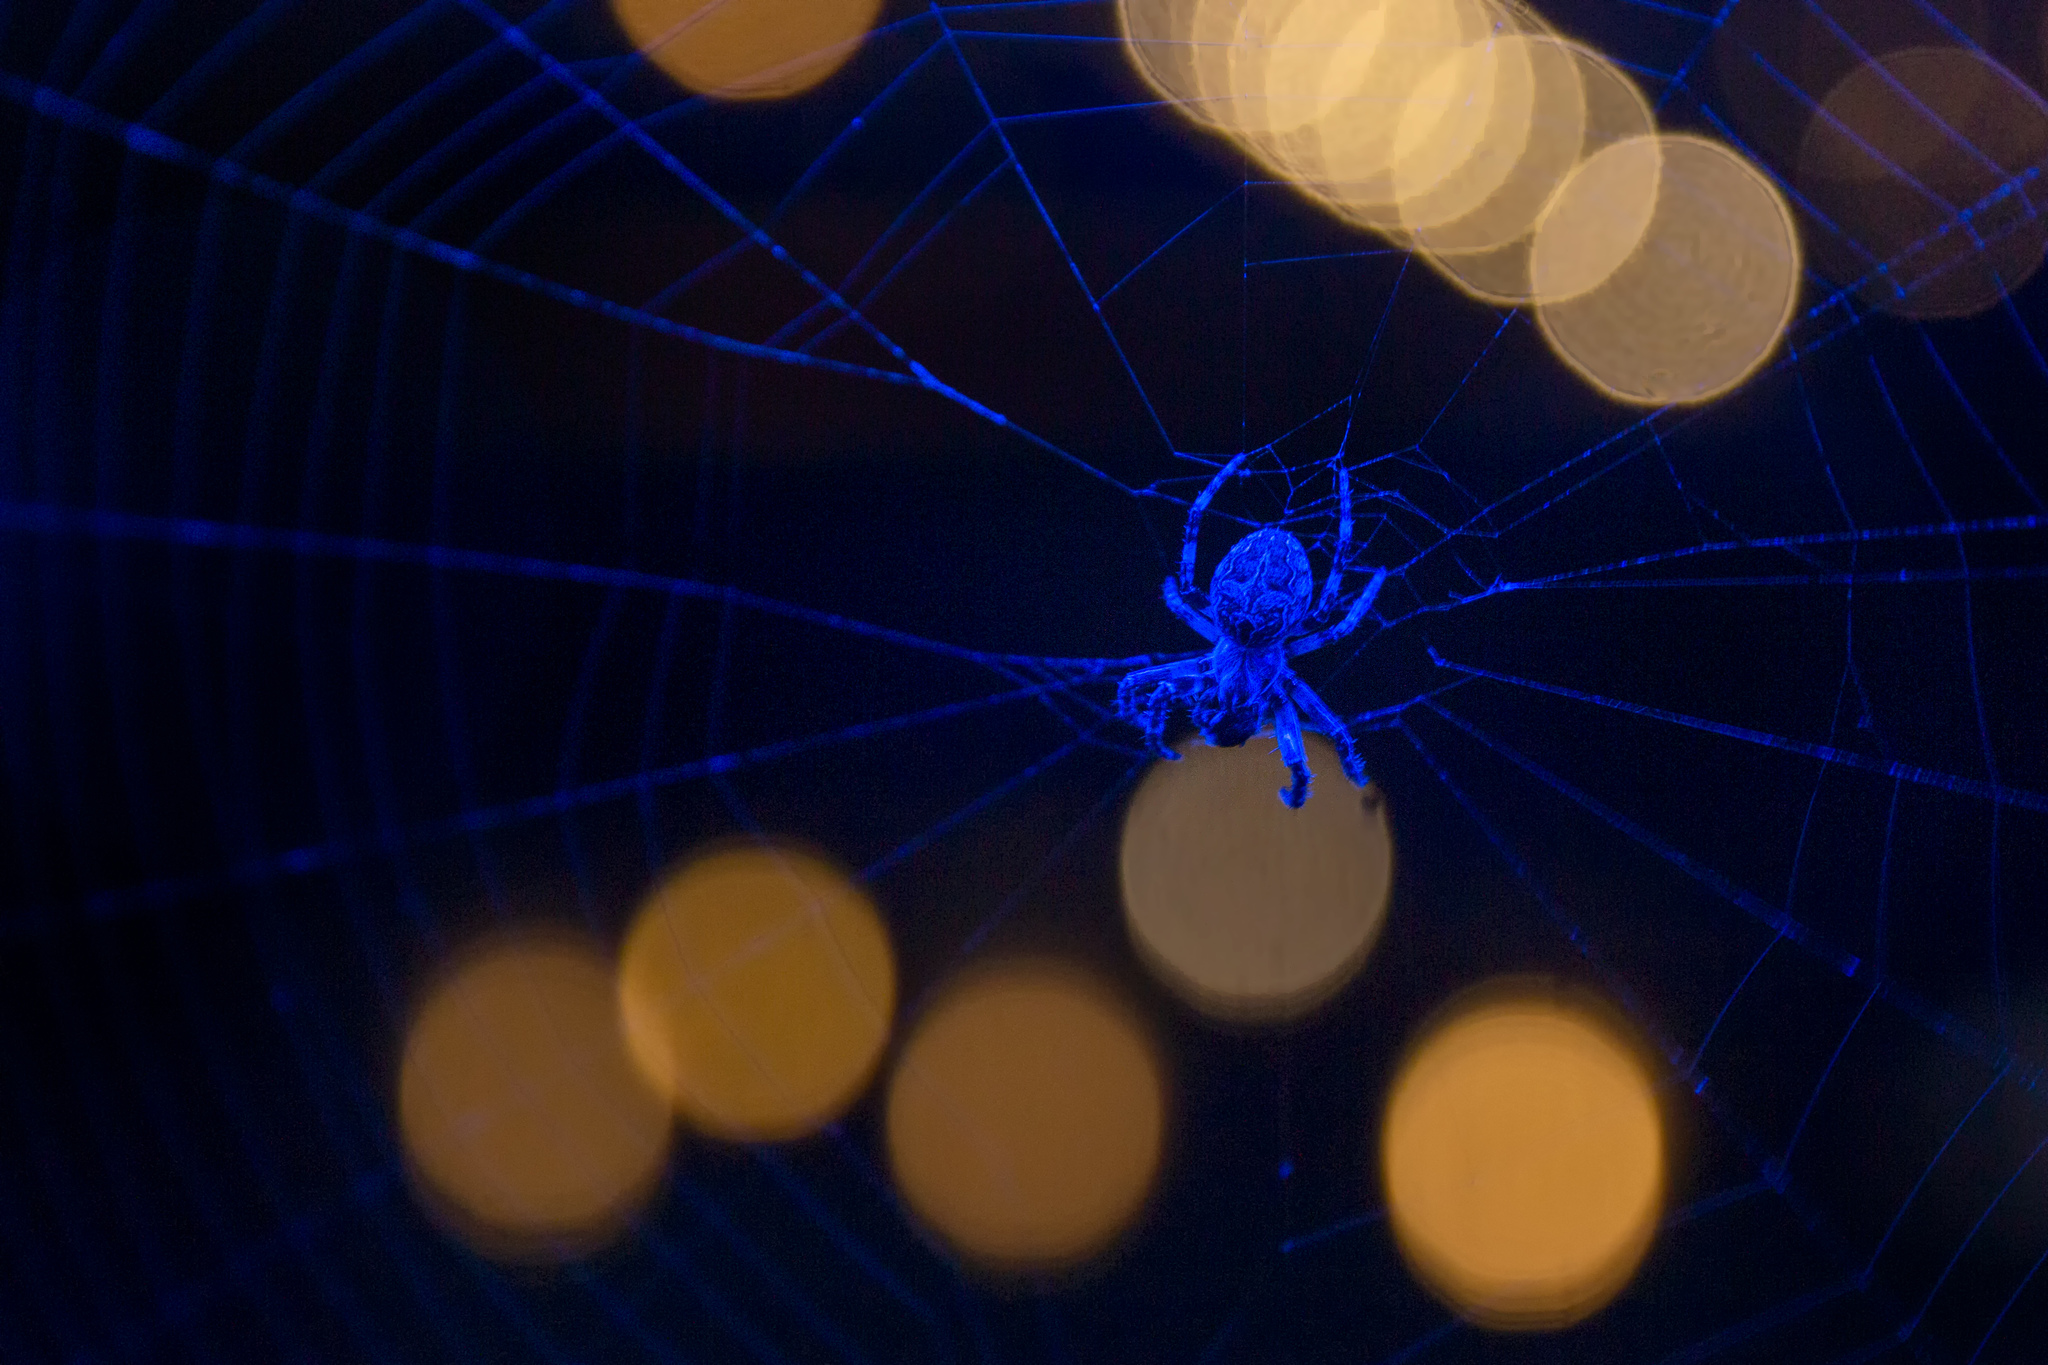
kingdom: Animalia
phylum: Arthropoda
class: Arachnida
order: Araneae
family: Araneidae
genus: Larinioides
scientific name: Larinioides sclopetarius
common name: Bridge orbweaver
